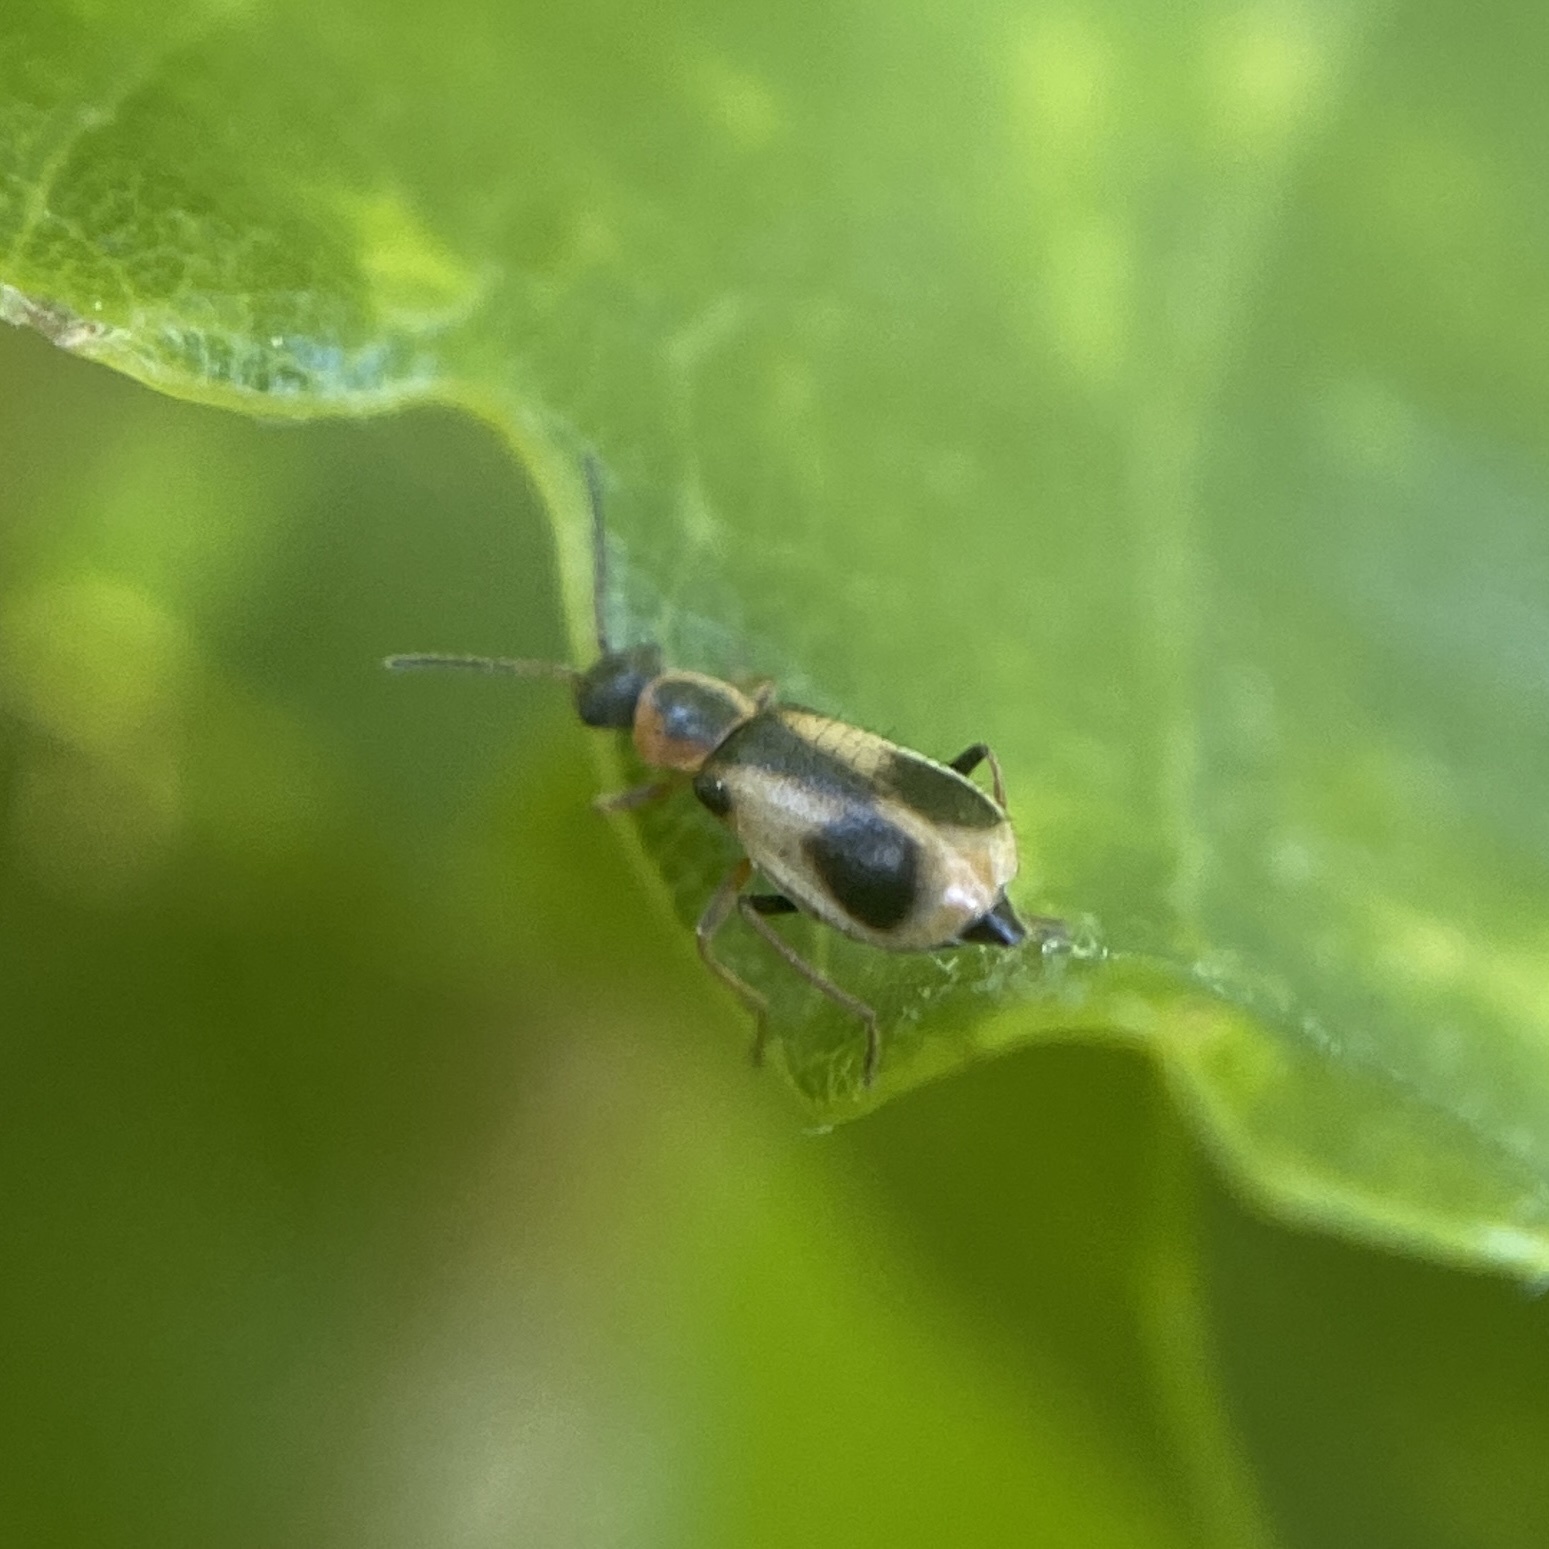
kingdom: Animalia
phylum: Arthropoda
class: Insecta
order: Coleoptera
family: Malachiidae
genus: Attalus
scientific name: Attalus pictus
